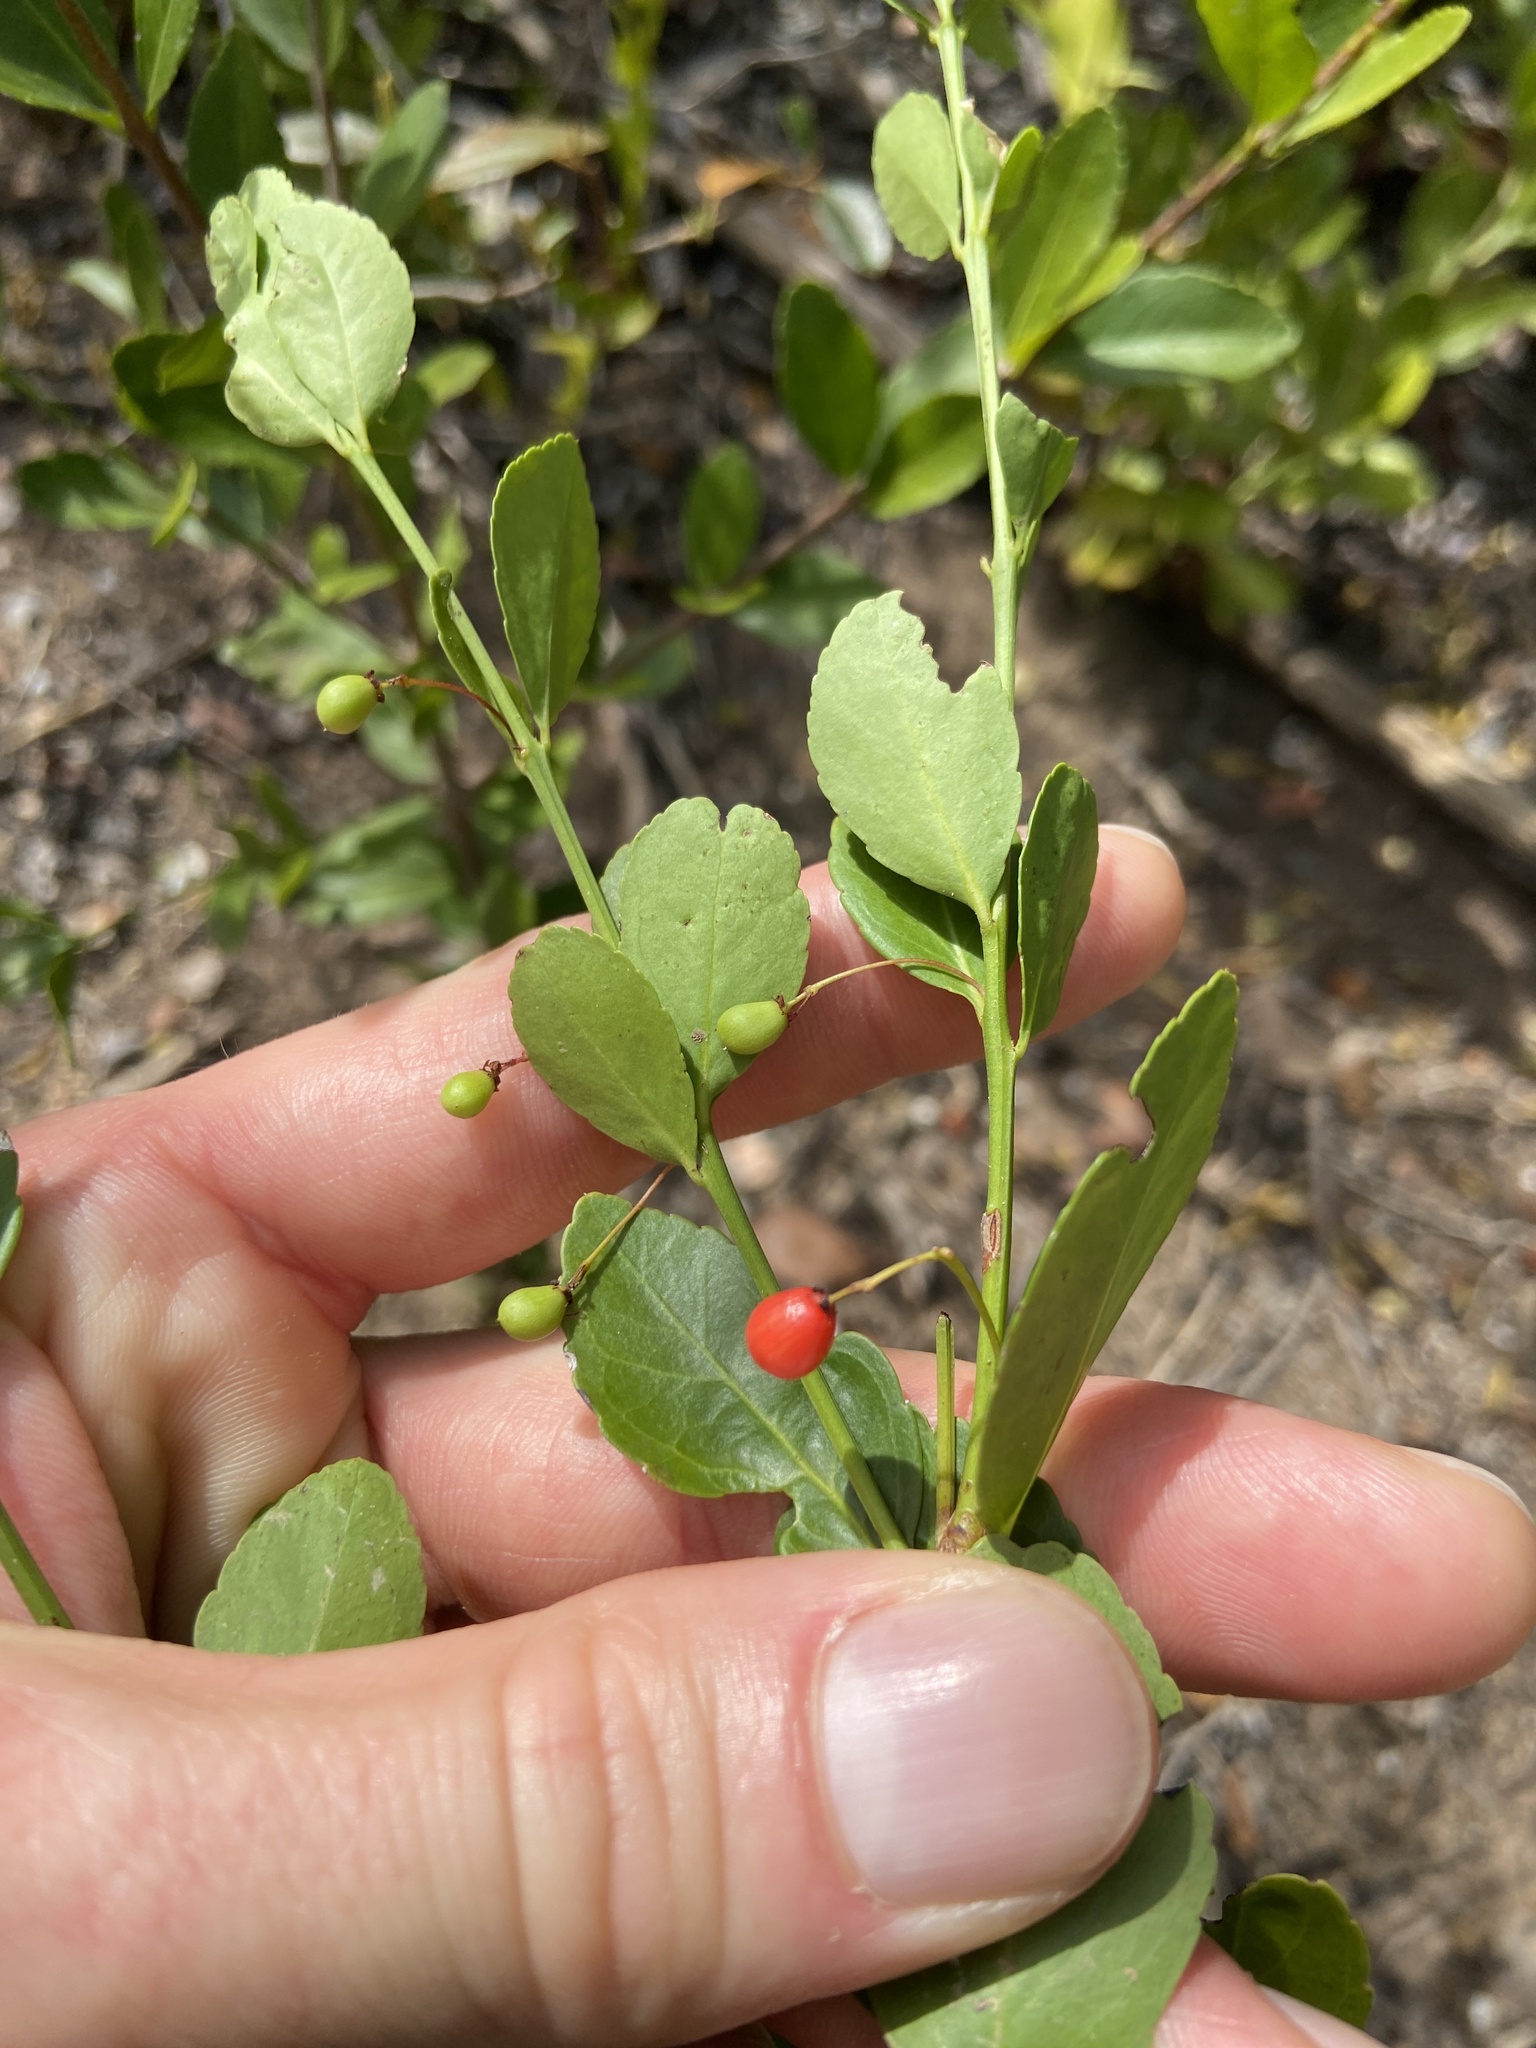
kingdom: Plantae
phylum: Tracheophyta
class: Magnoliopsida
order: Celastrales
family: Celastraceae
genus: Crossopetalum
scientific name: Crossopetalum rhacoma
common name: Maidenberry
